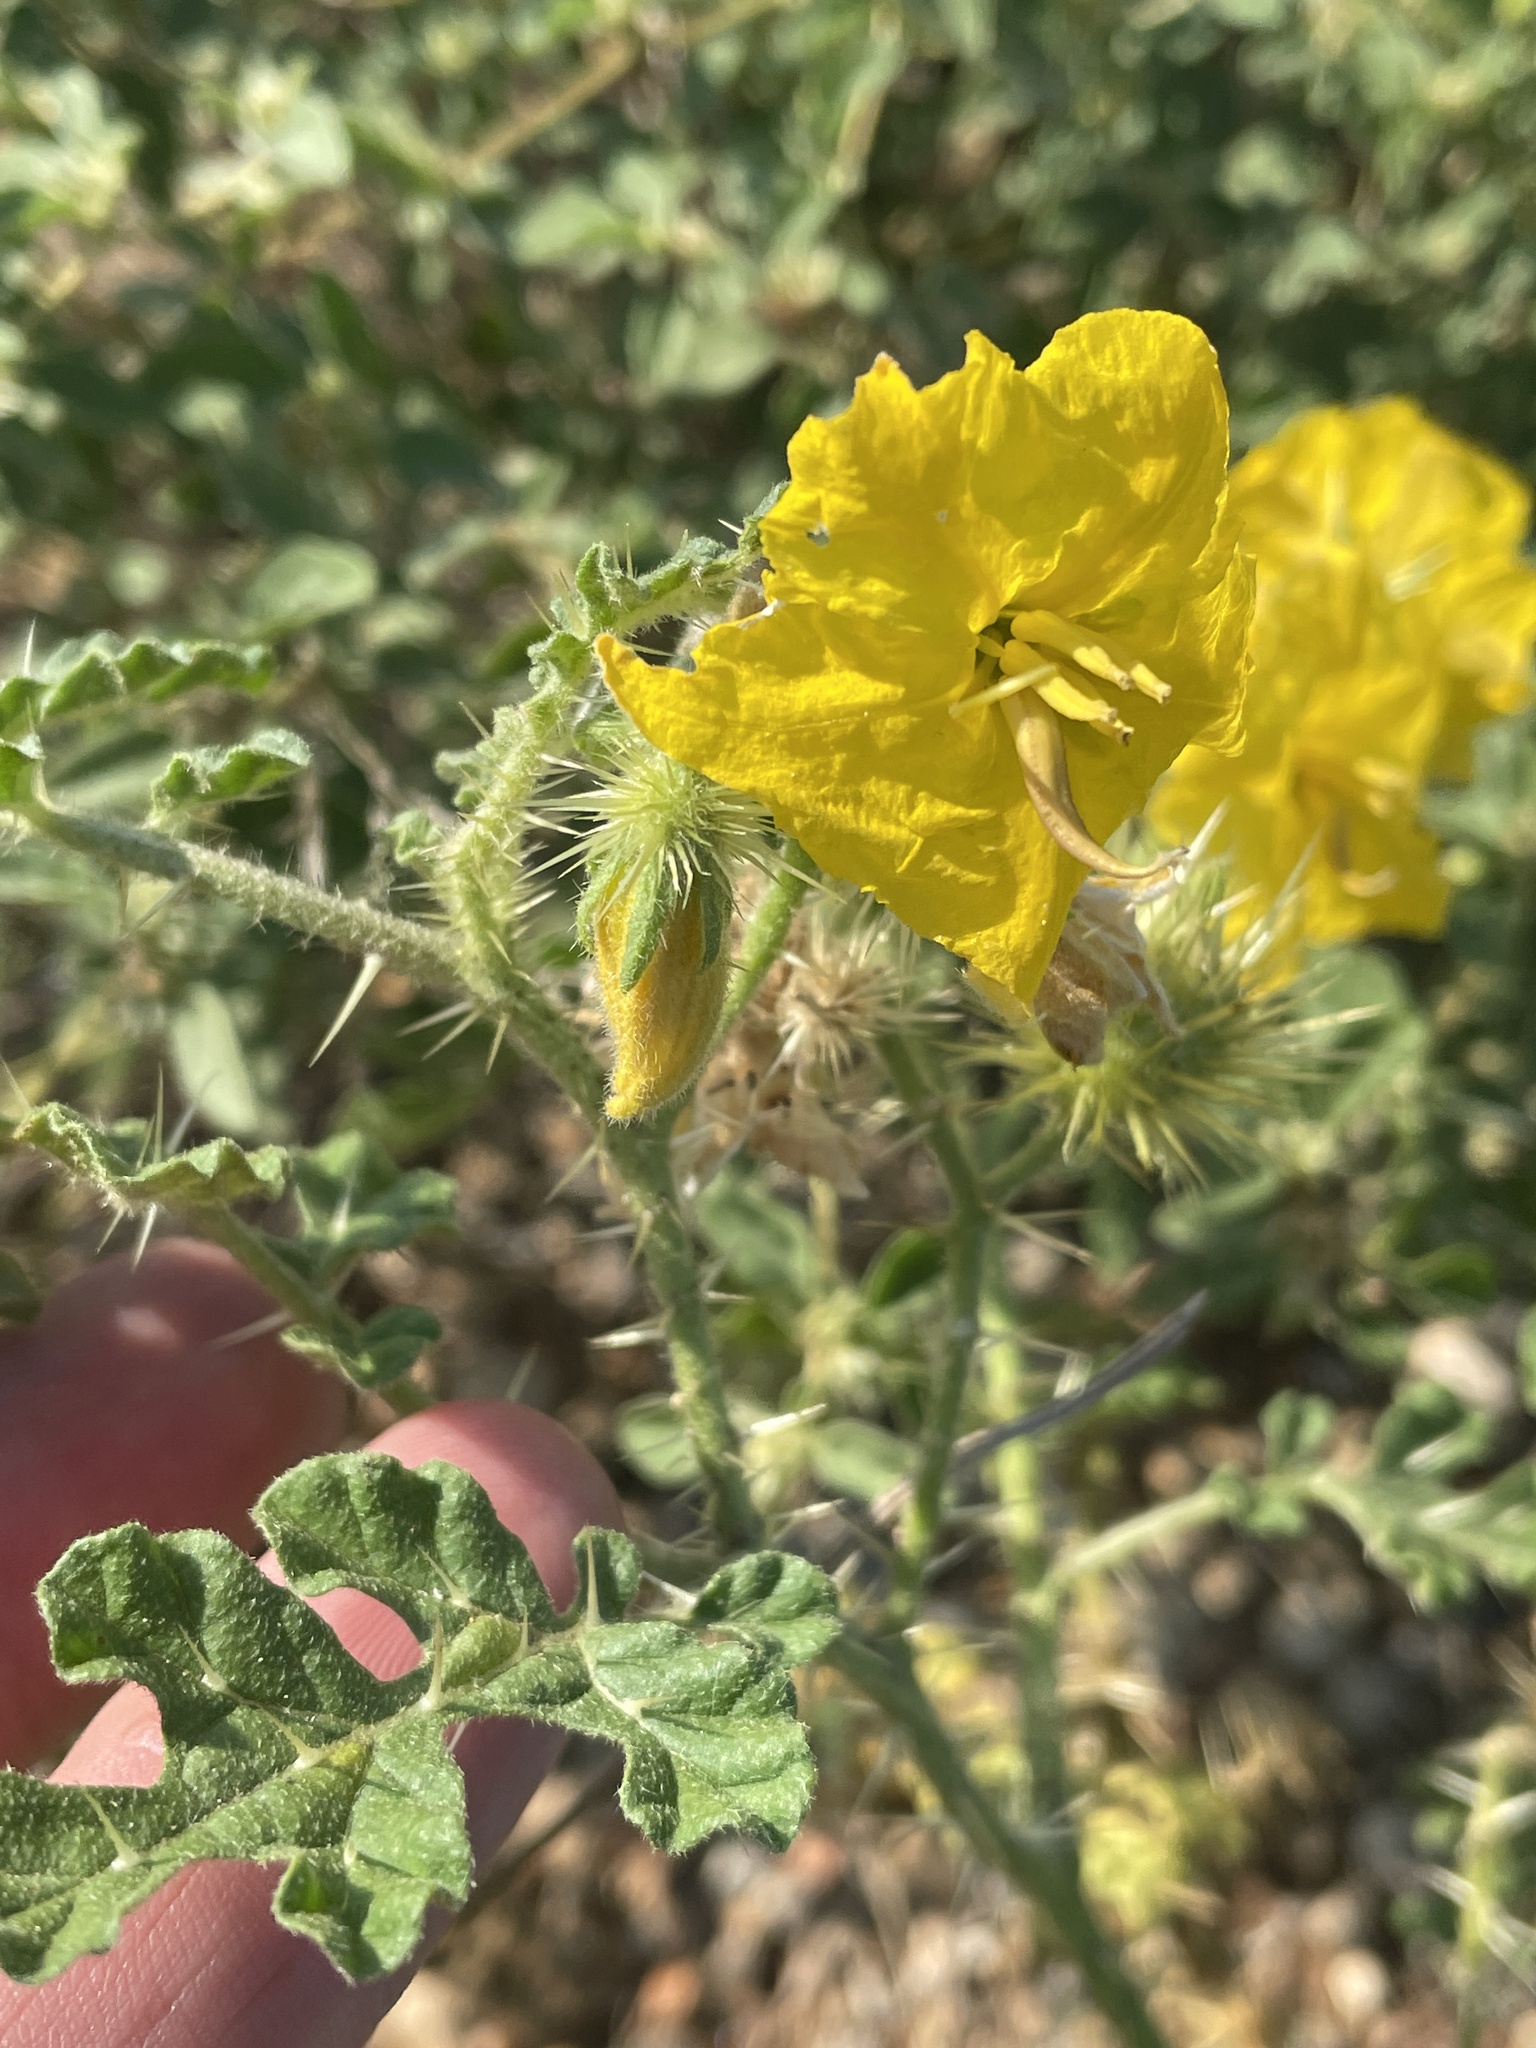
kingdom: Plantae
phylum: Tracheophyta
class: Magnoliopsida
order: Solanales
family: Solanaceae
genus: Solanum
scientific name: Solanum angustifolium
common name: Buffalobur nightshade
